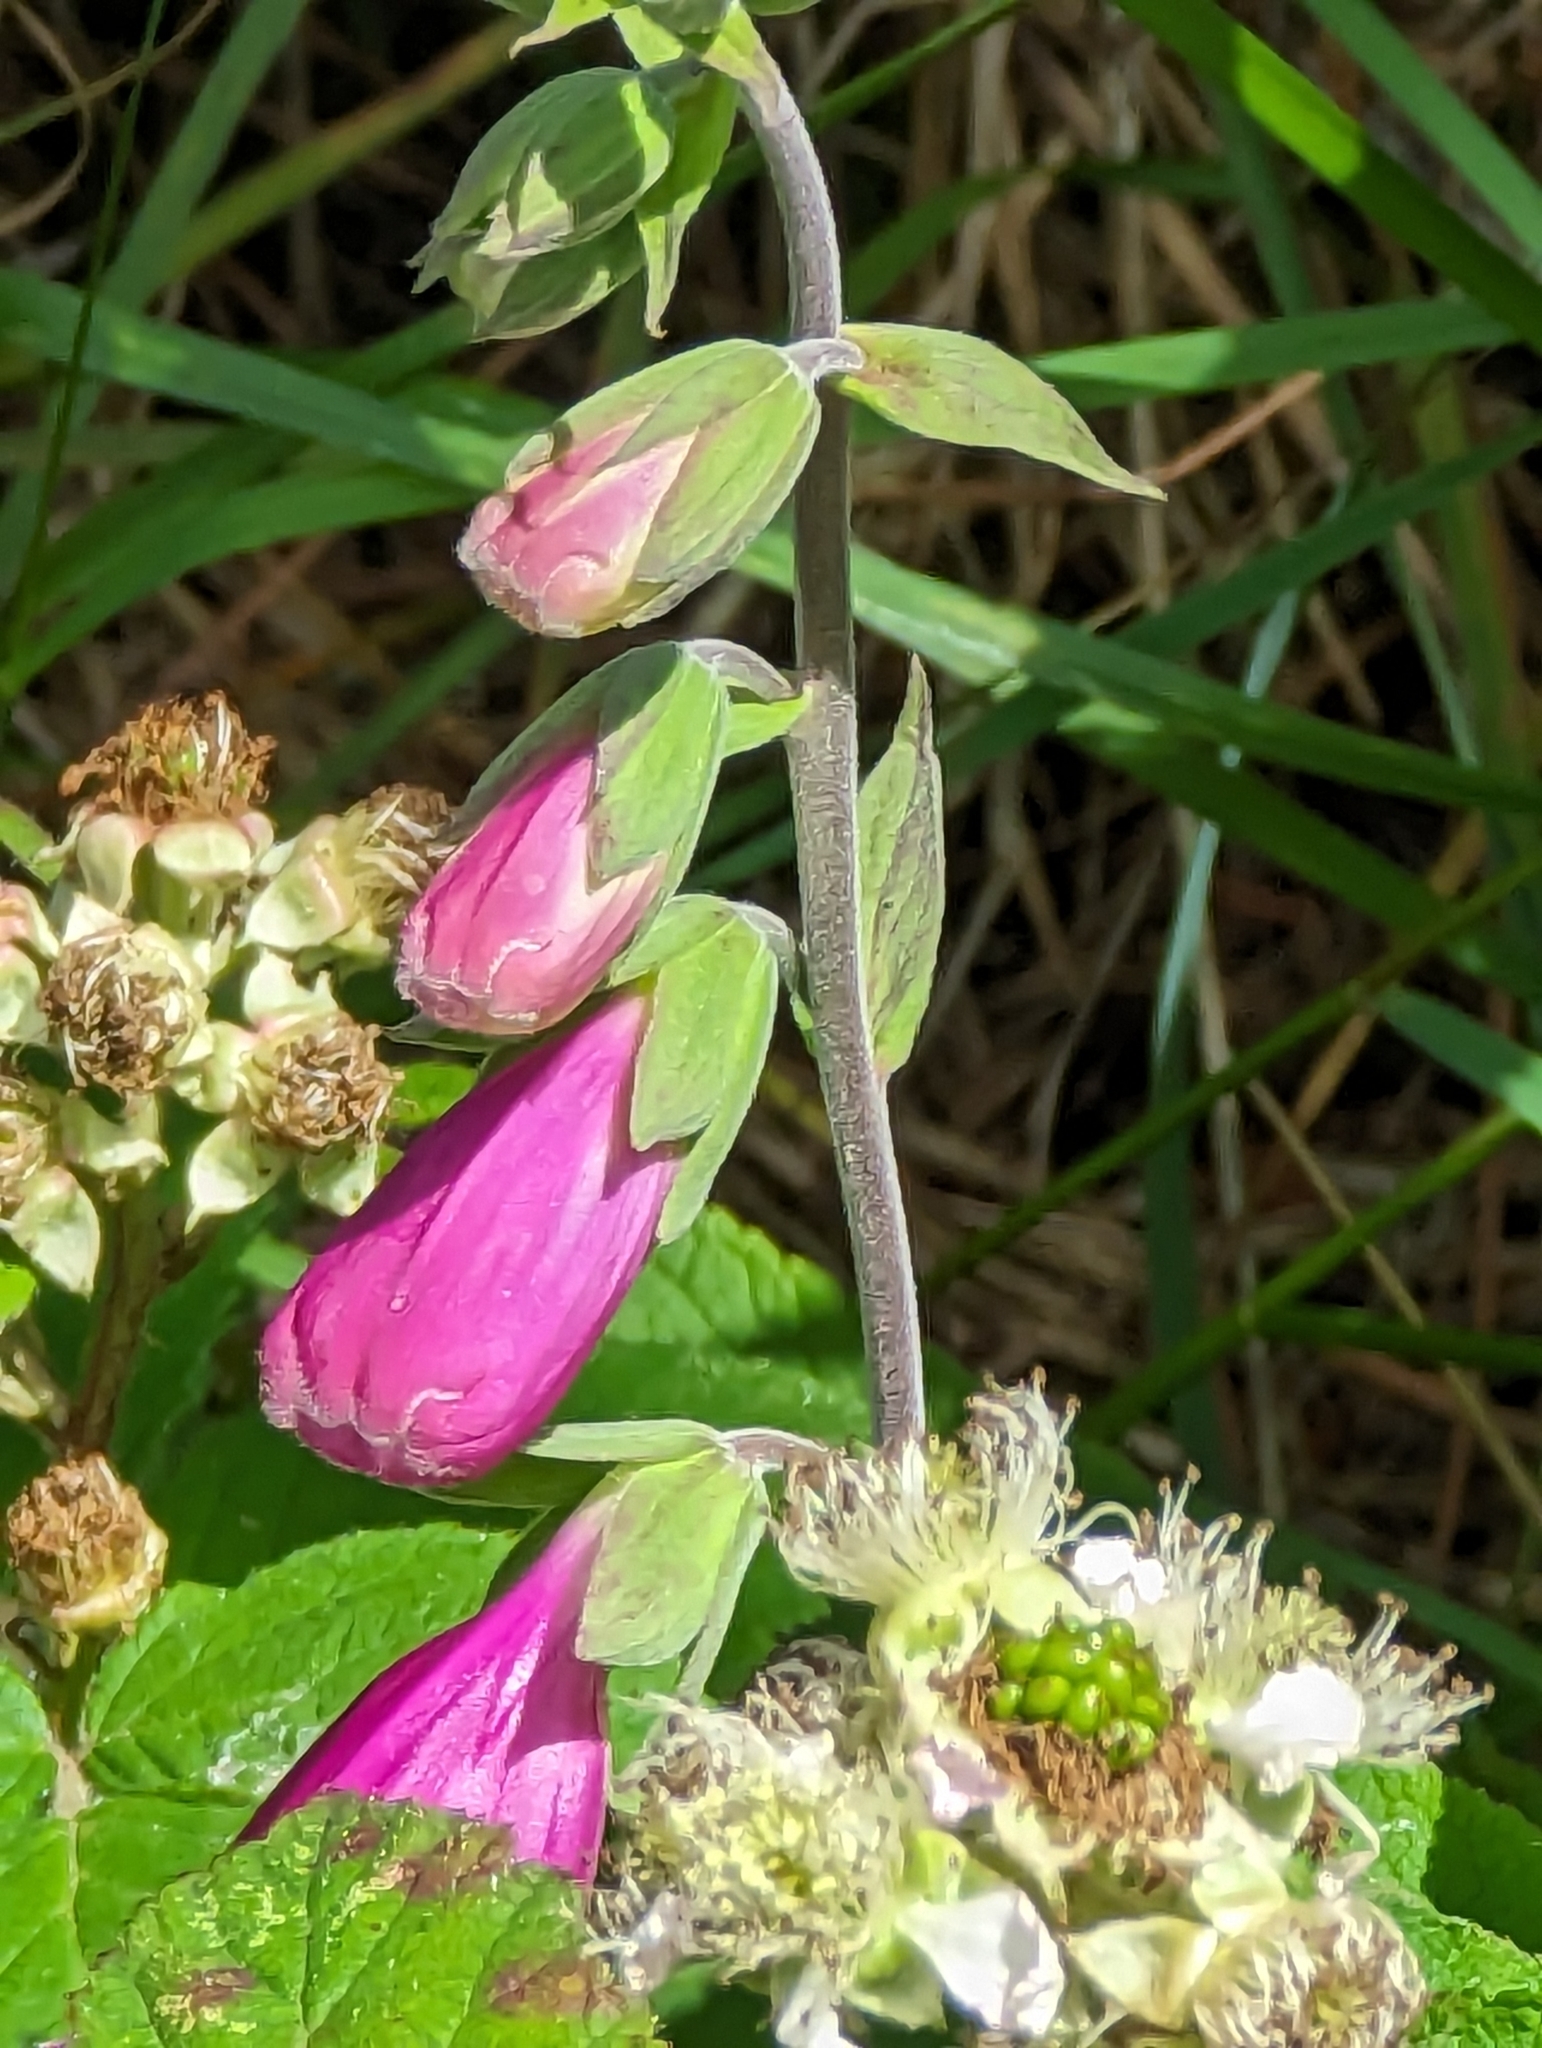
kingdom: Plantae
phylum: Tracheophyta
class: Magnoliopsida
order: Lamiales
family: Plantaginaceae
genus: Digitalis
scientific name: Digitalis purpurea
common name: Foxglove
